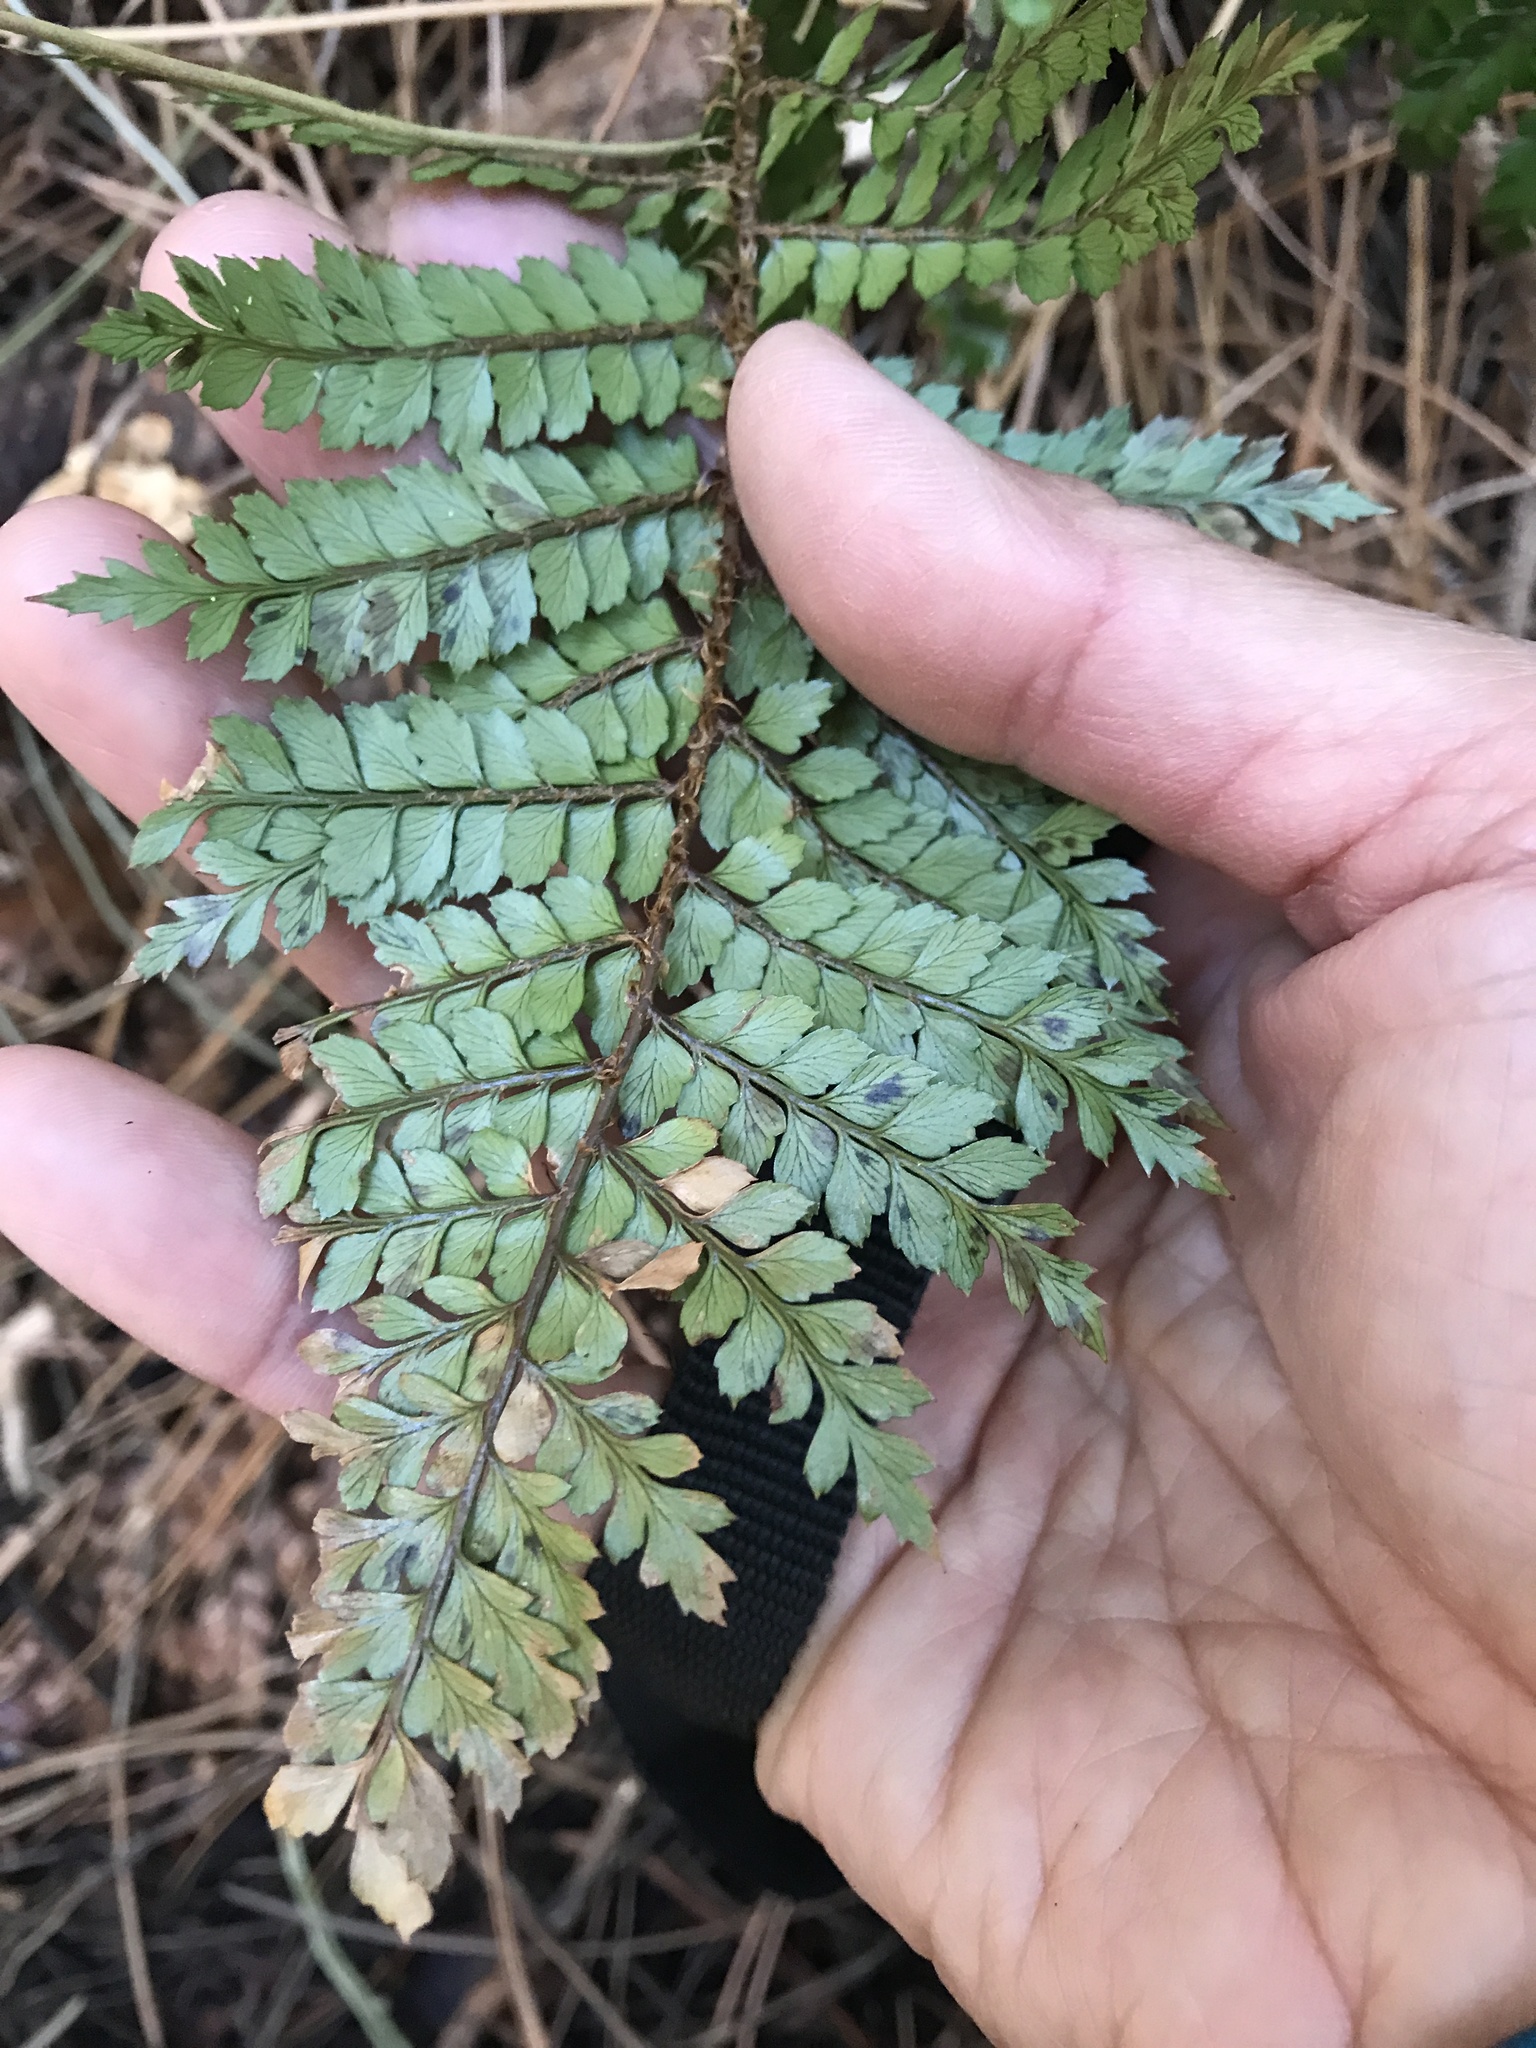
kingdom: Plantae
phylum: Tracheophyta
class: Polypodiopsida
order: Polypodiales
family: Dryopteridaceae
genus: Polystichum
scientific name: Polystichum vestitum
